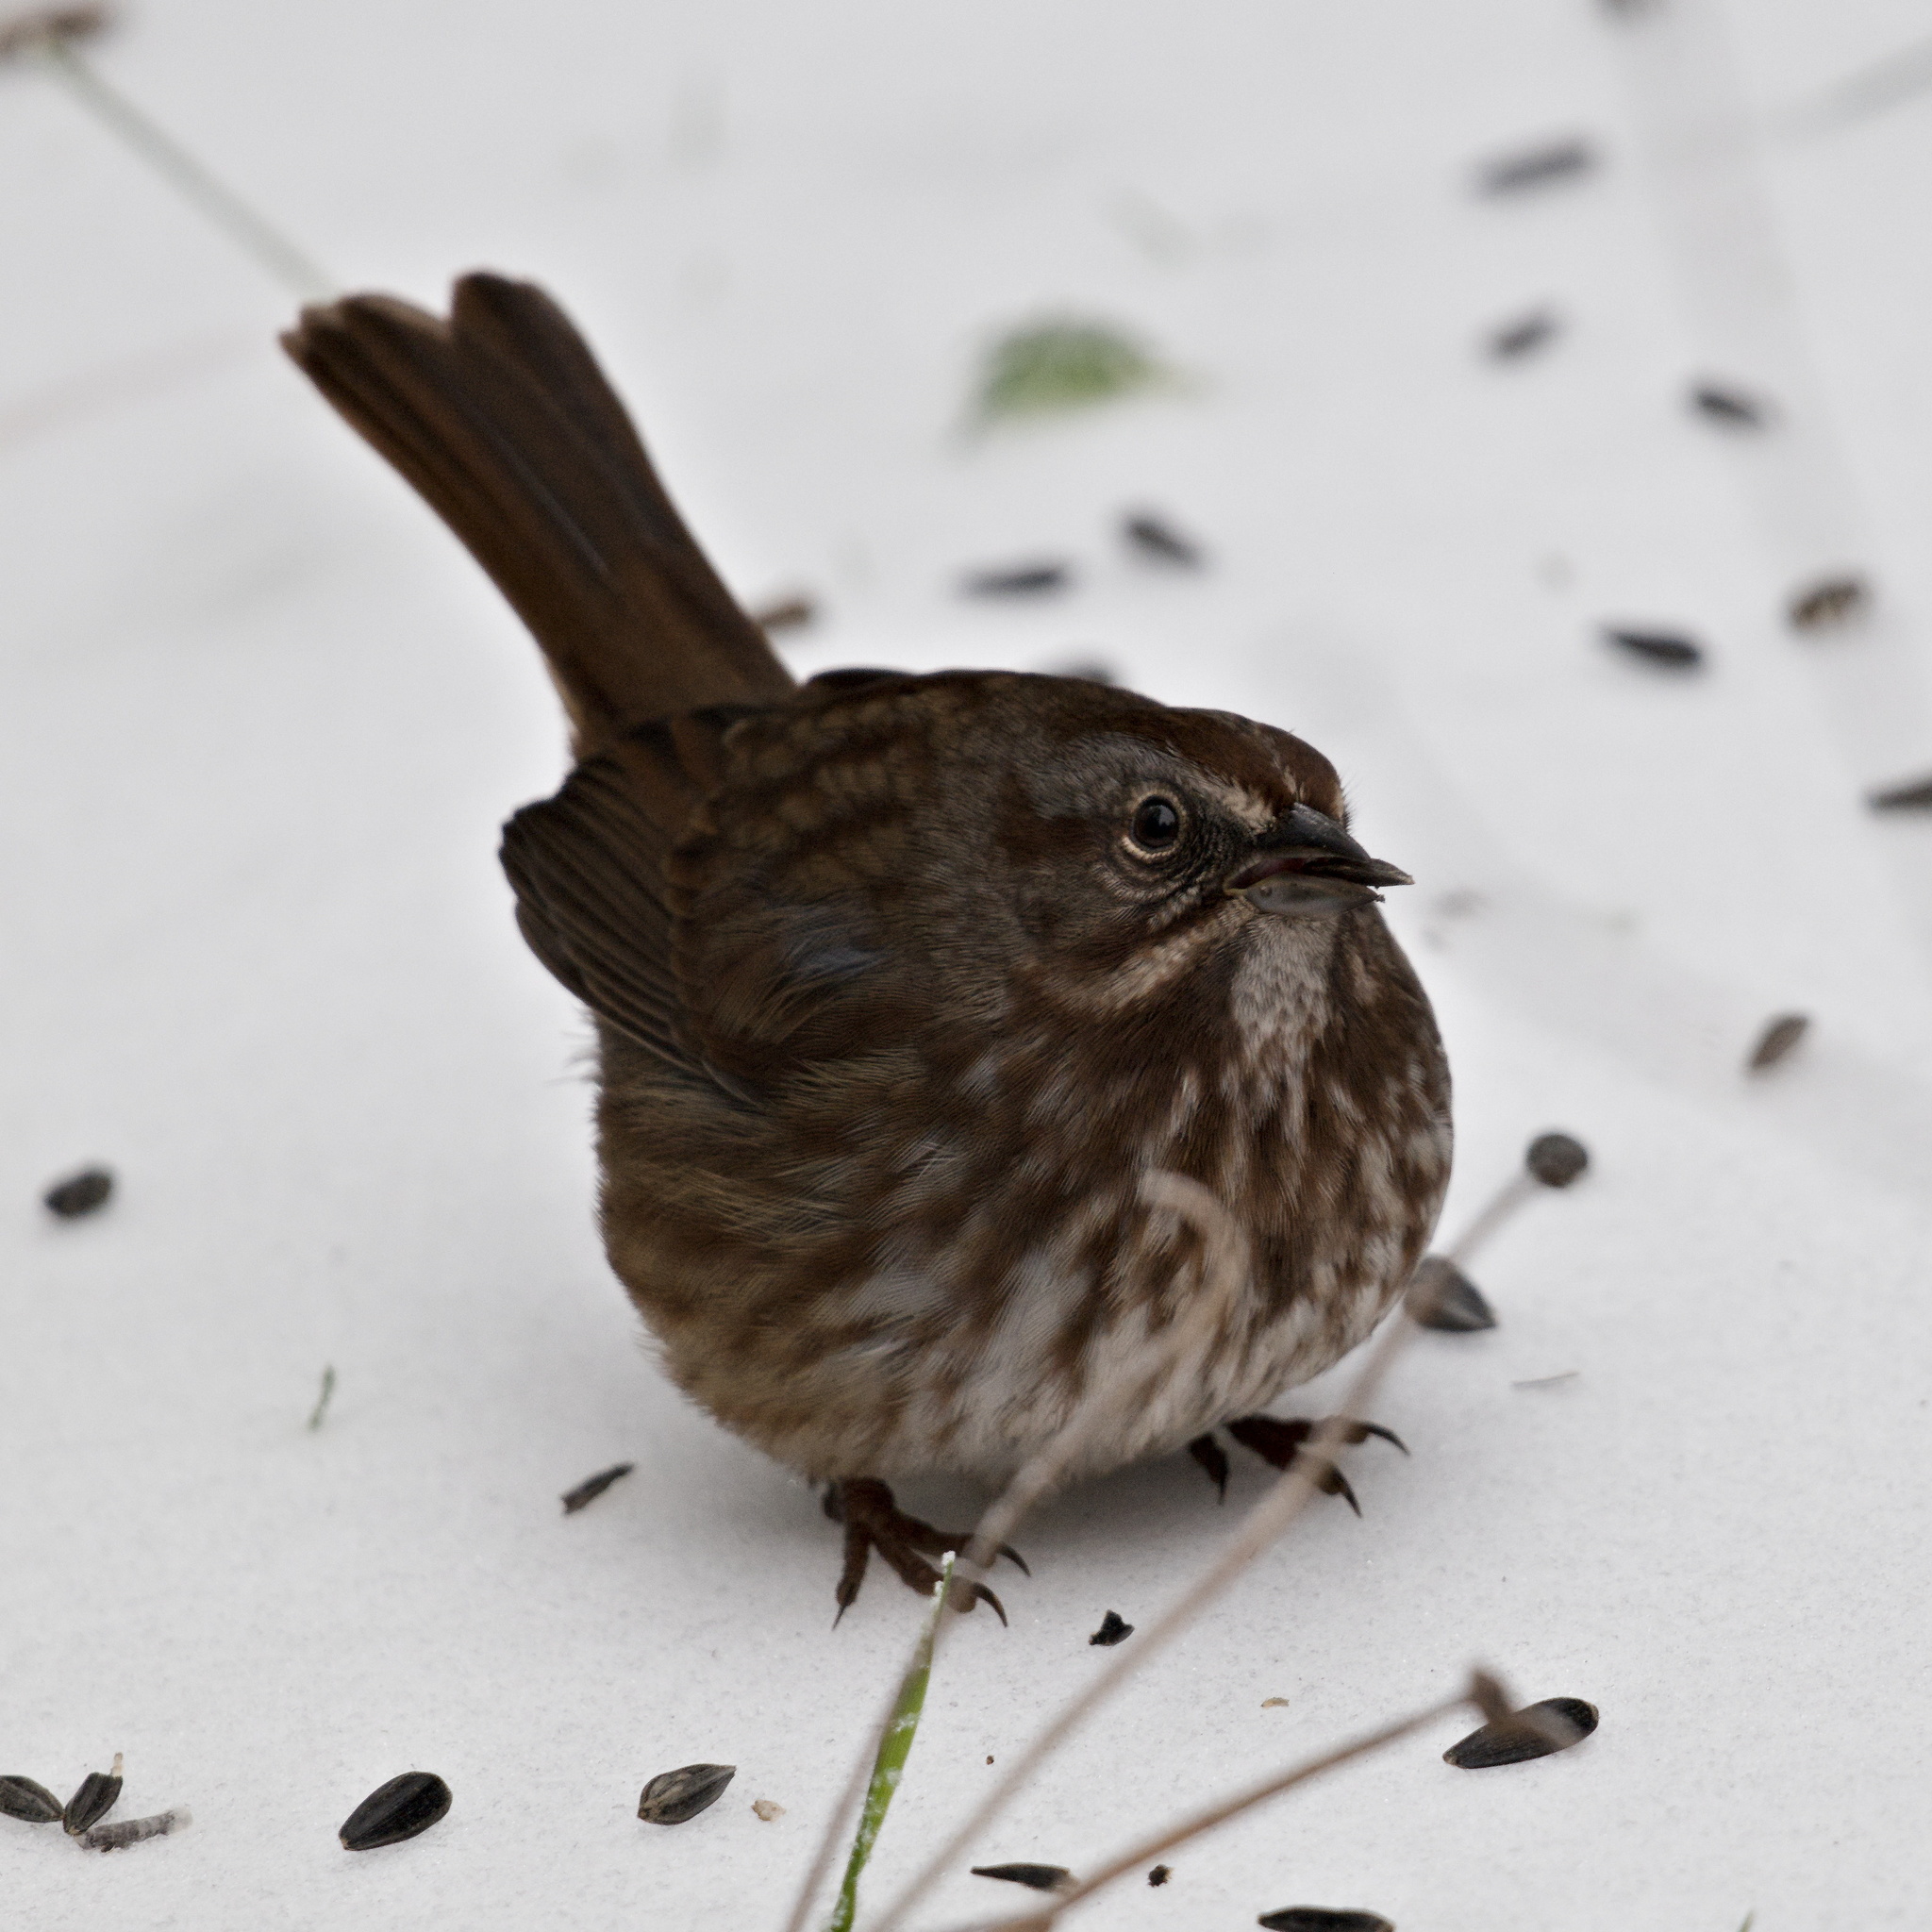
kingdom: Animalia
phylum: Chordata
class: Aves
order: Passeriformes
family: Passerellidae
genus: Melospiza
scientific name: Melospiza melodia
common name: Song sparrow
